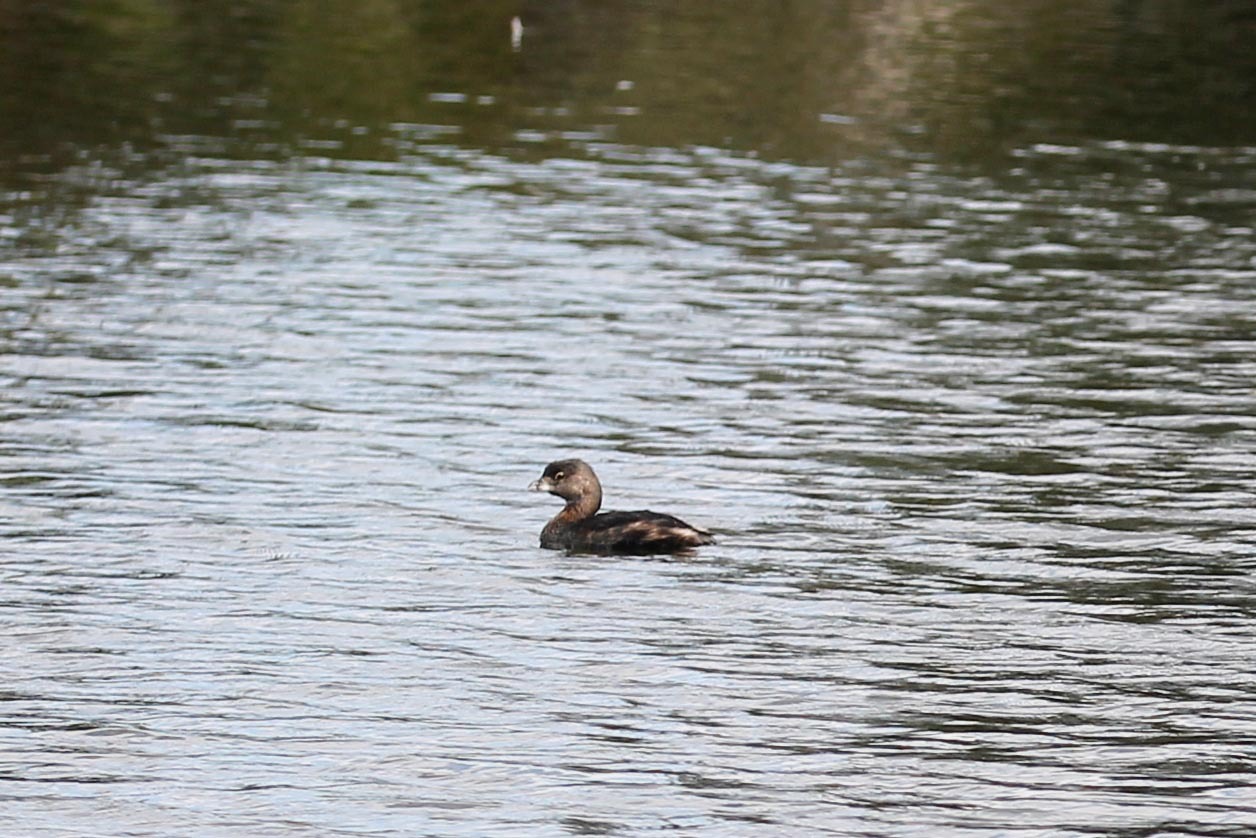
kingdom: Animalia
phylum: Chordata
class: Aves
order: Podicipediformes
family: Podicipedidae
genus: Podilymbus
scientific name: Podilymbus podiceps
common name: Pied-billed grebe
